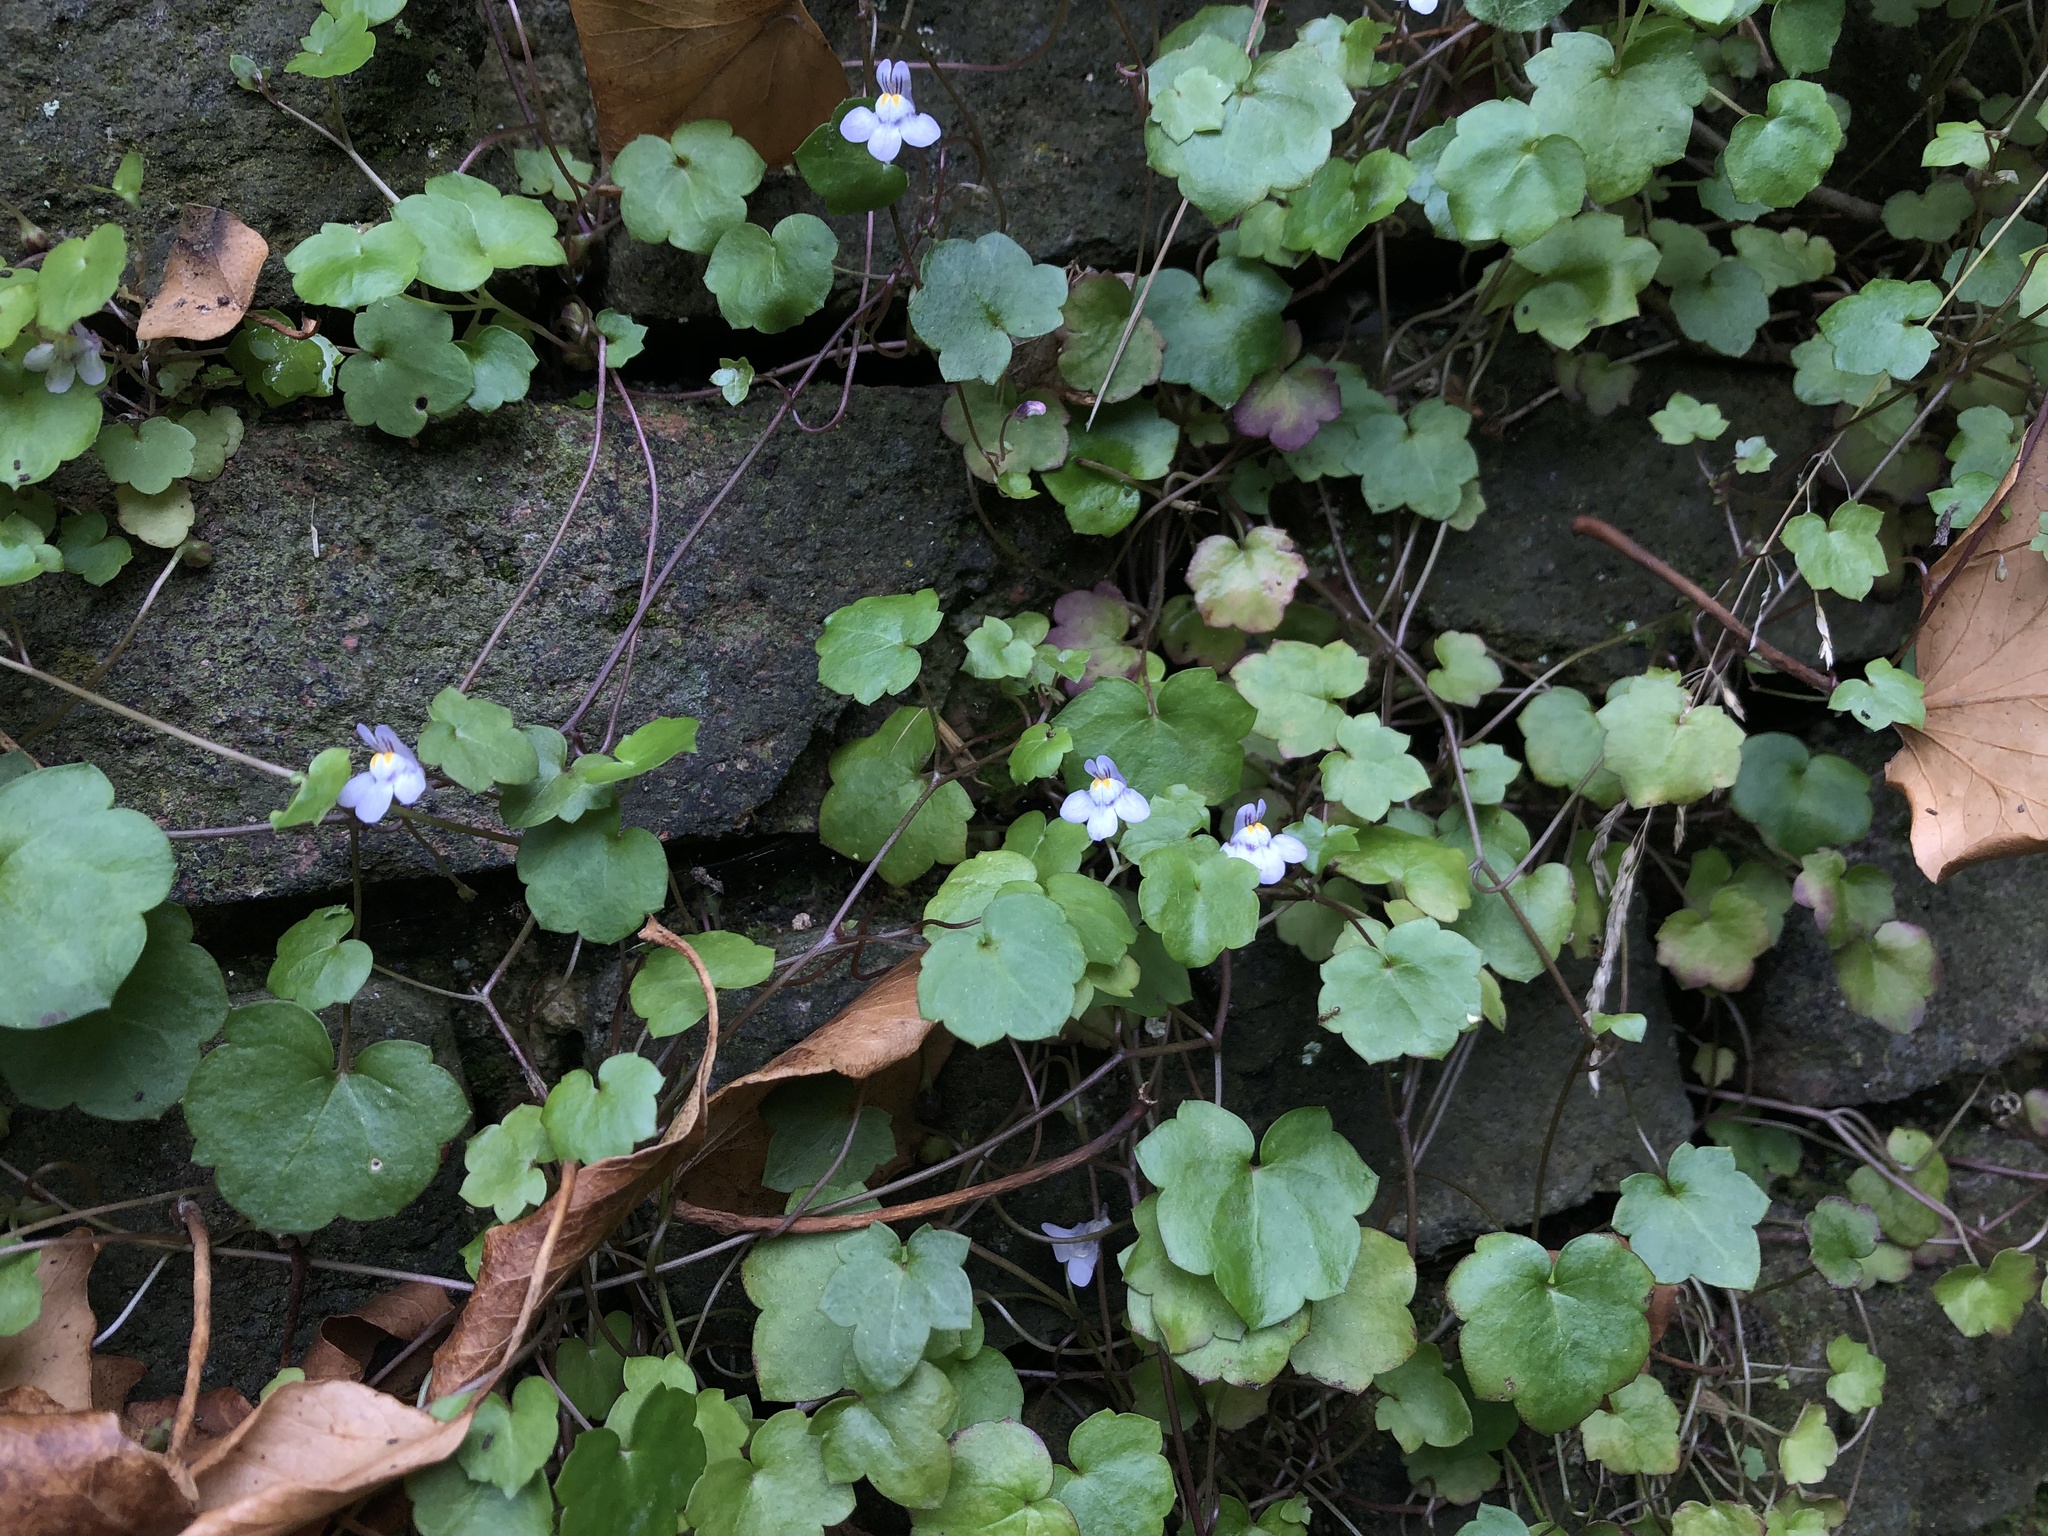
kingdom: Plantae
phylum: Tracheophyta
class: Magnoliopsida
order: Lamiales
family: Plantaginaceae
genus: Cymbalaria
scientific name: Cymbalaria muralis
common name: Ivy-leaved toadflax
